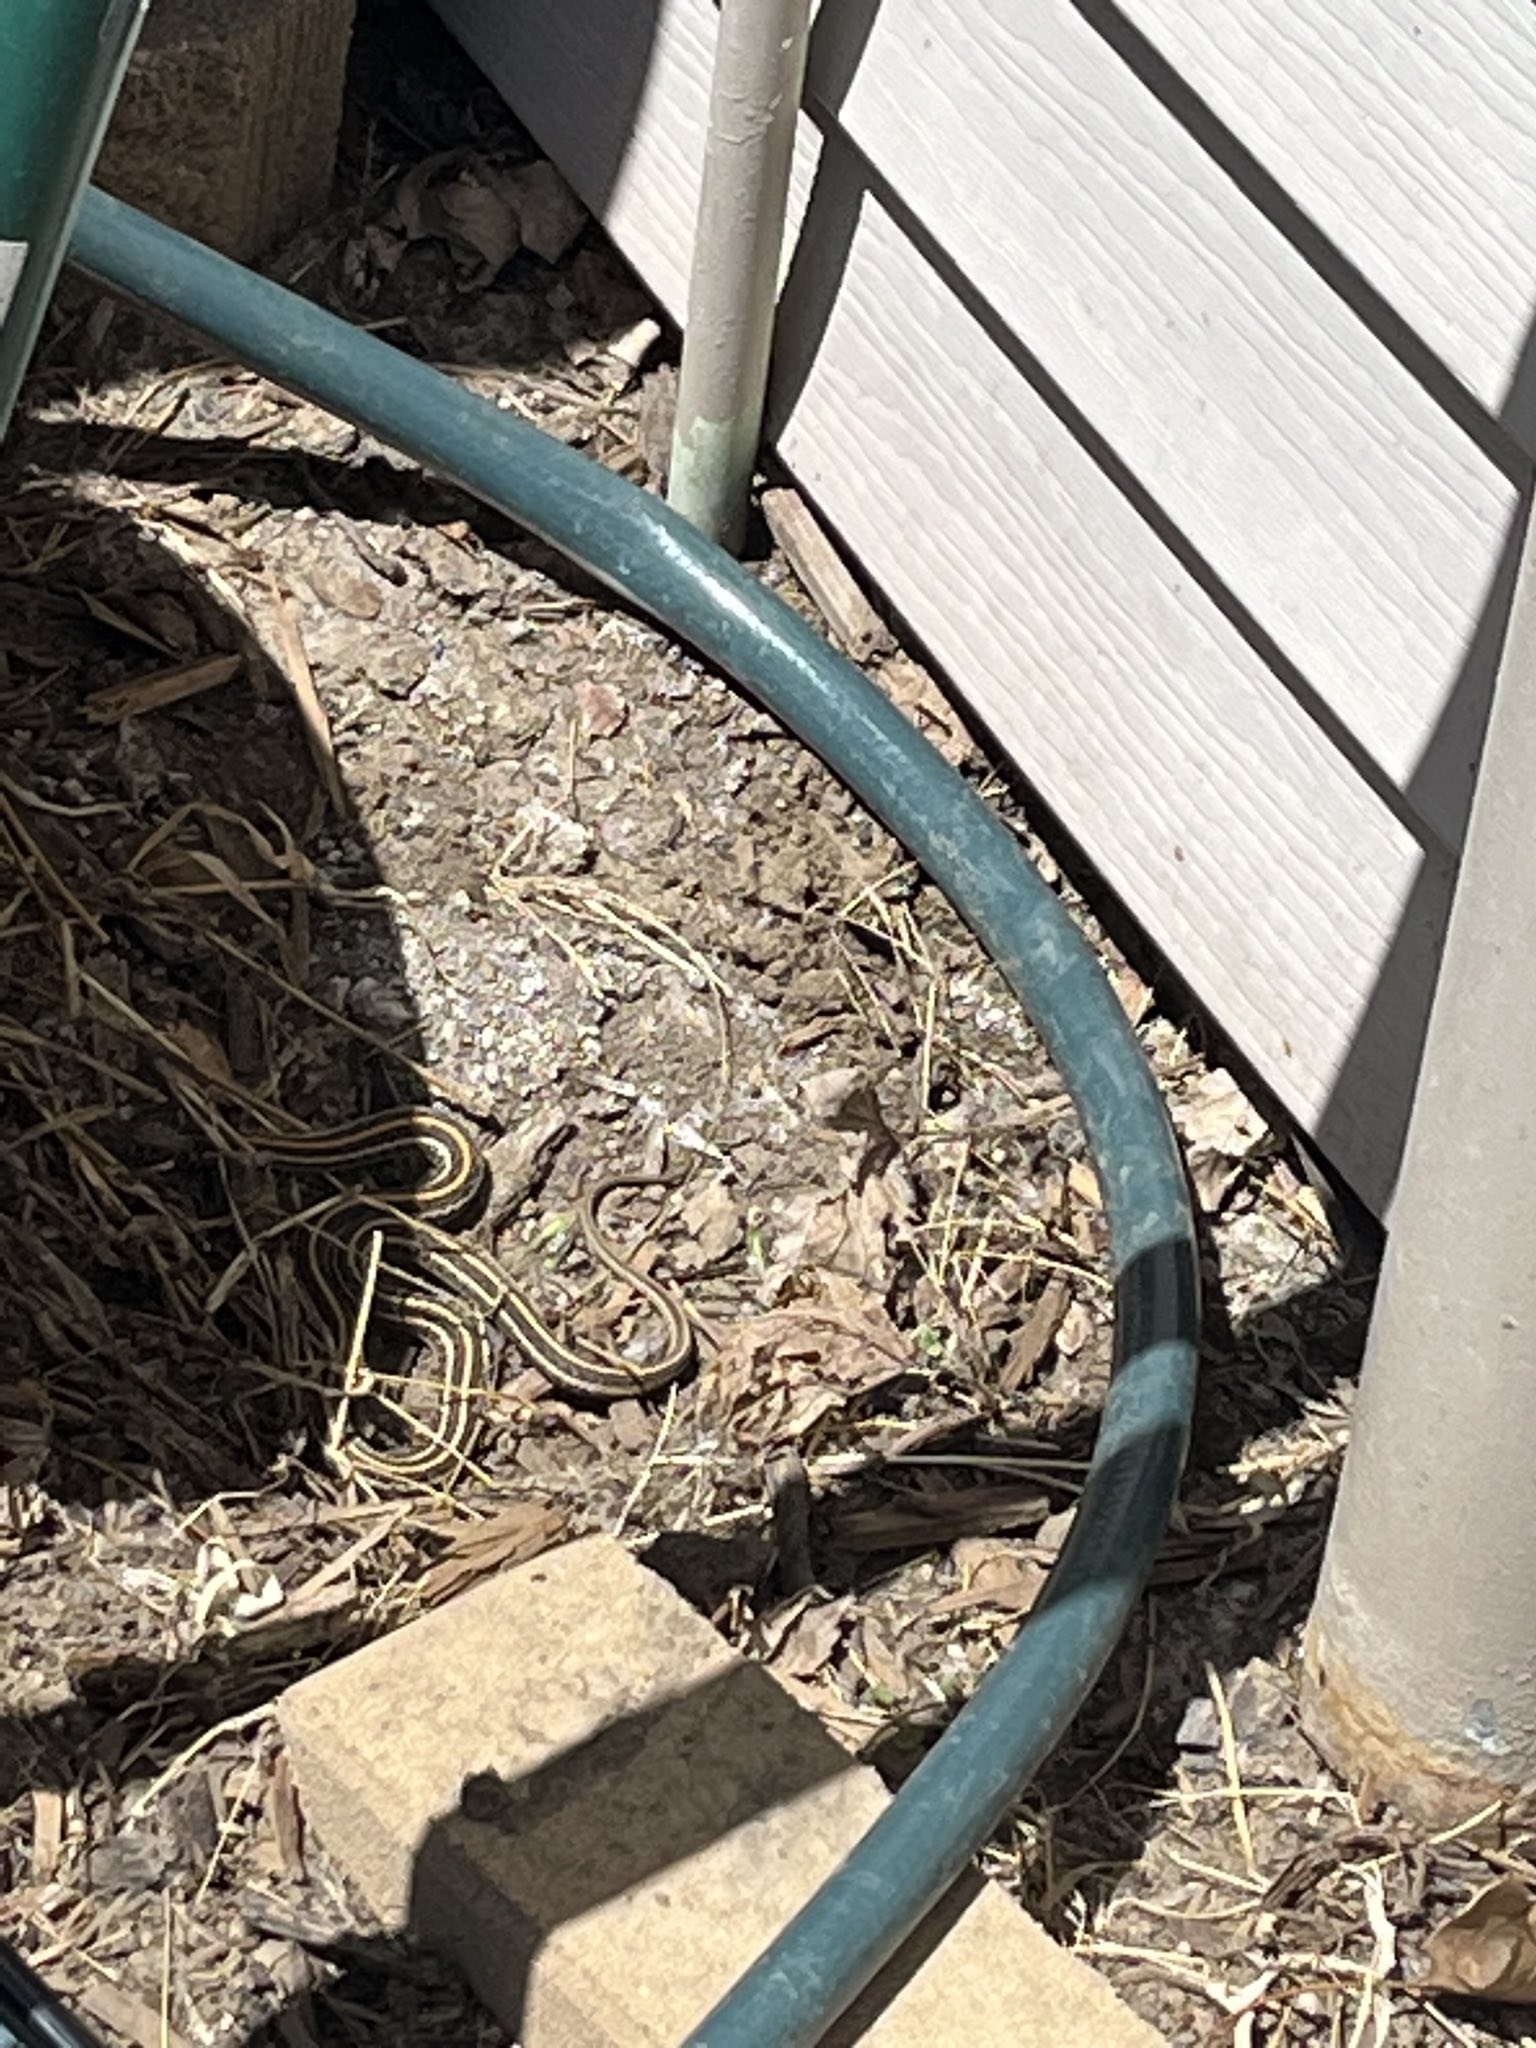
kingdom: Animalia
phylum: Chordata
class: Squamata
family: Colubridae
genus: Thamnophis
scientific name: Thamnophis radix
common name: Plains garter snake
